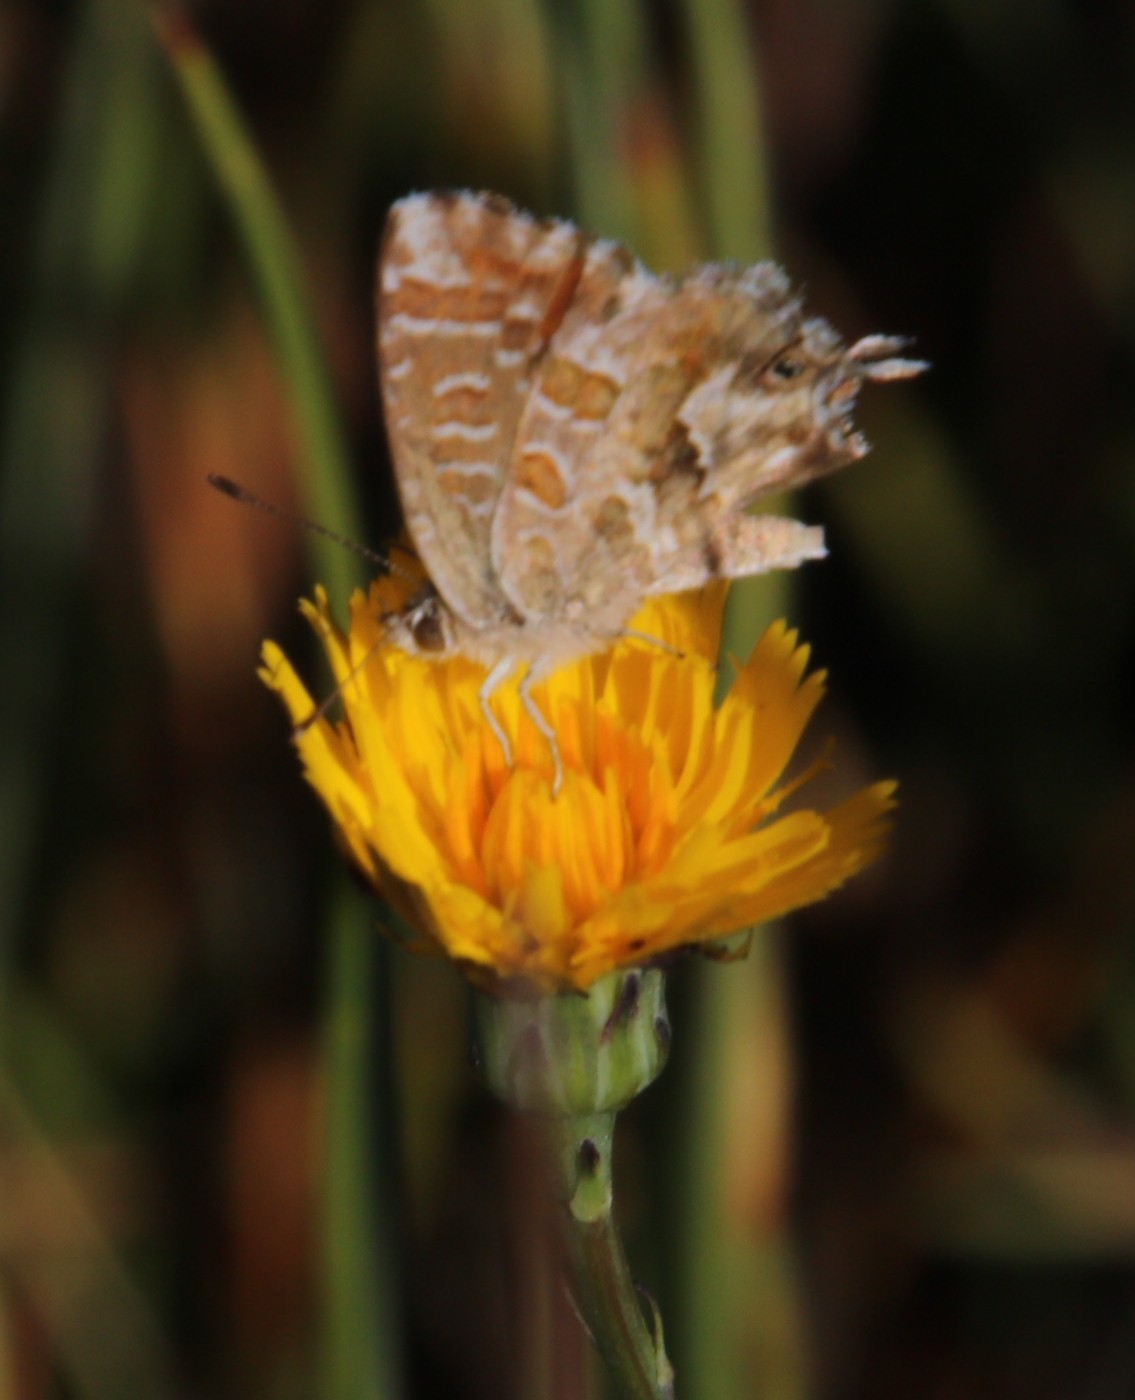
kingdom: Animalia
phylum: Arthropoda
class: Insecta
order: Lepidoptera
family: Lycaenidae
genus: Cacyreus
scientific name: Cacyreus fracta
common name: Water bronze
